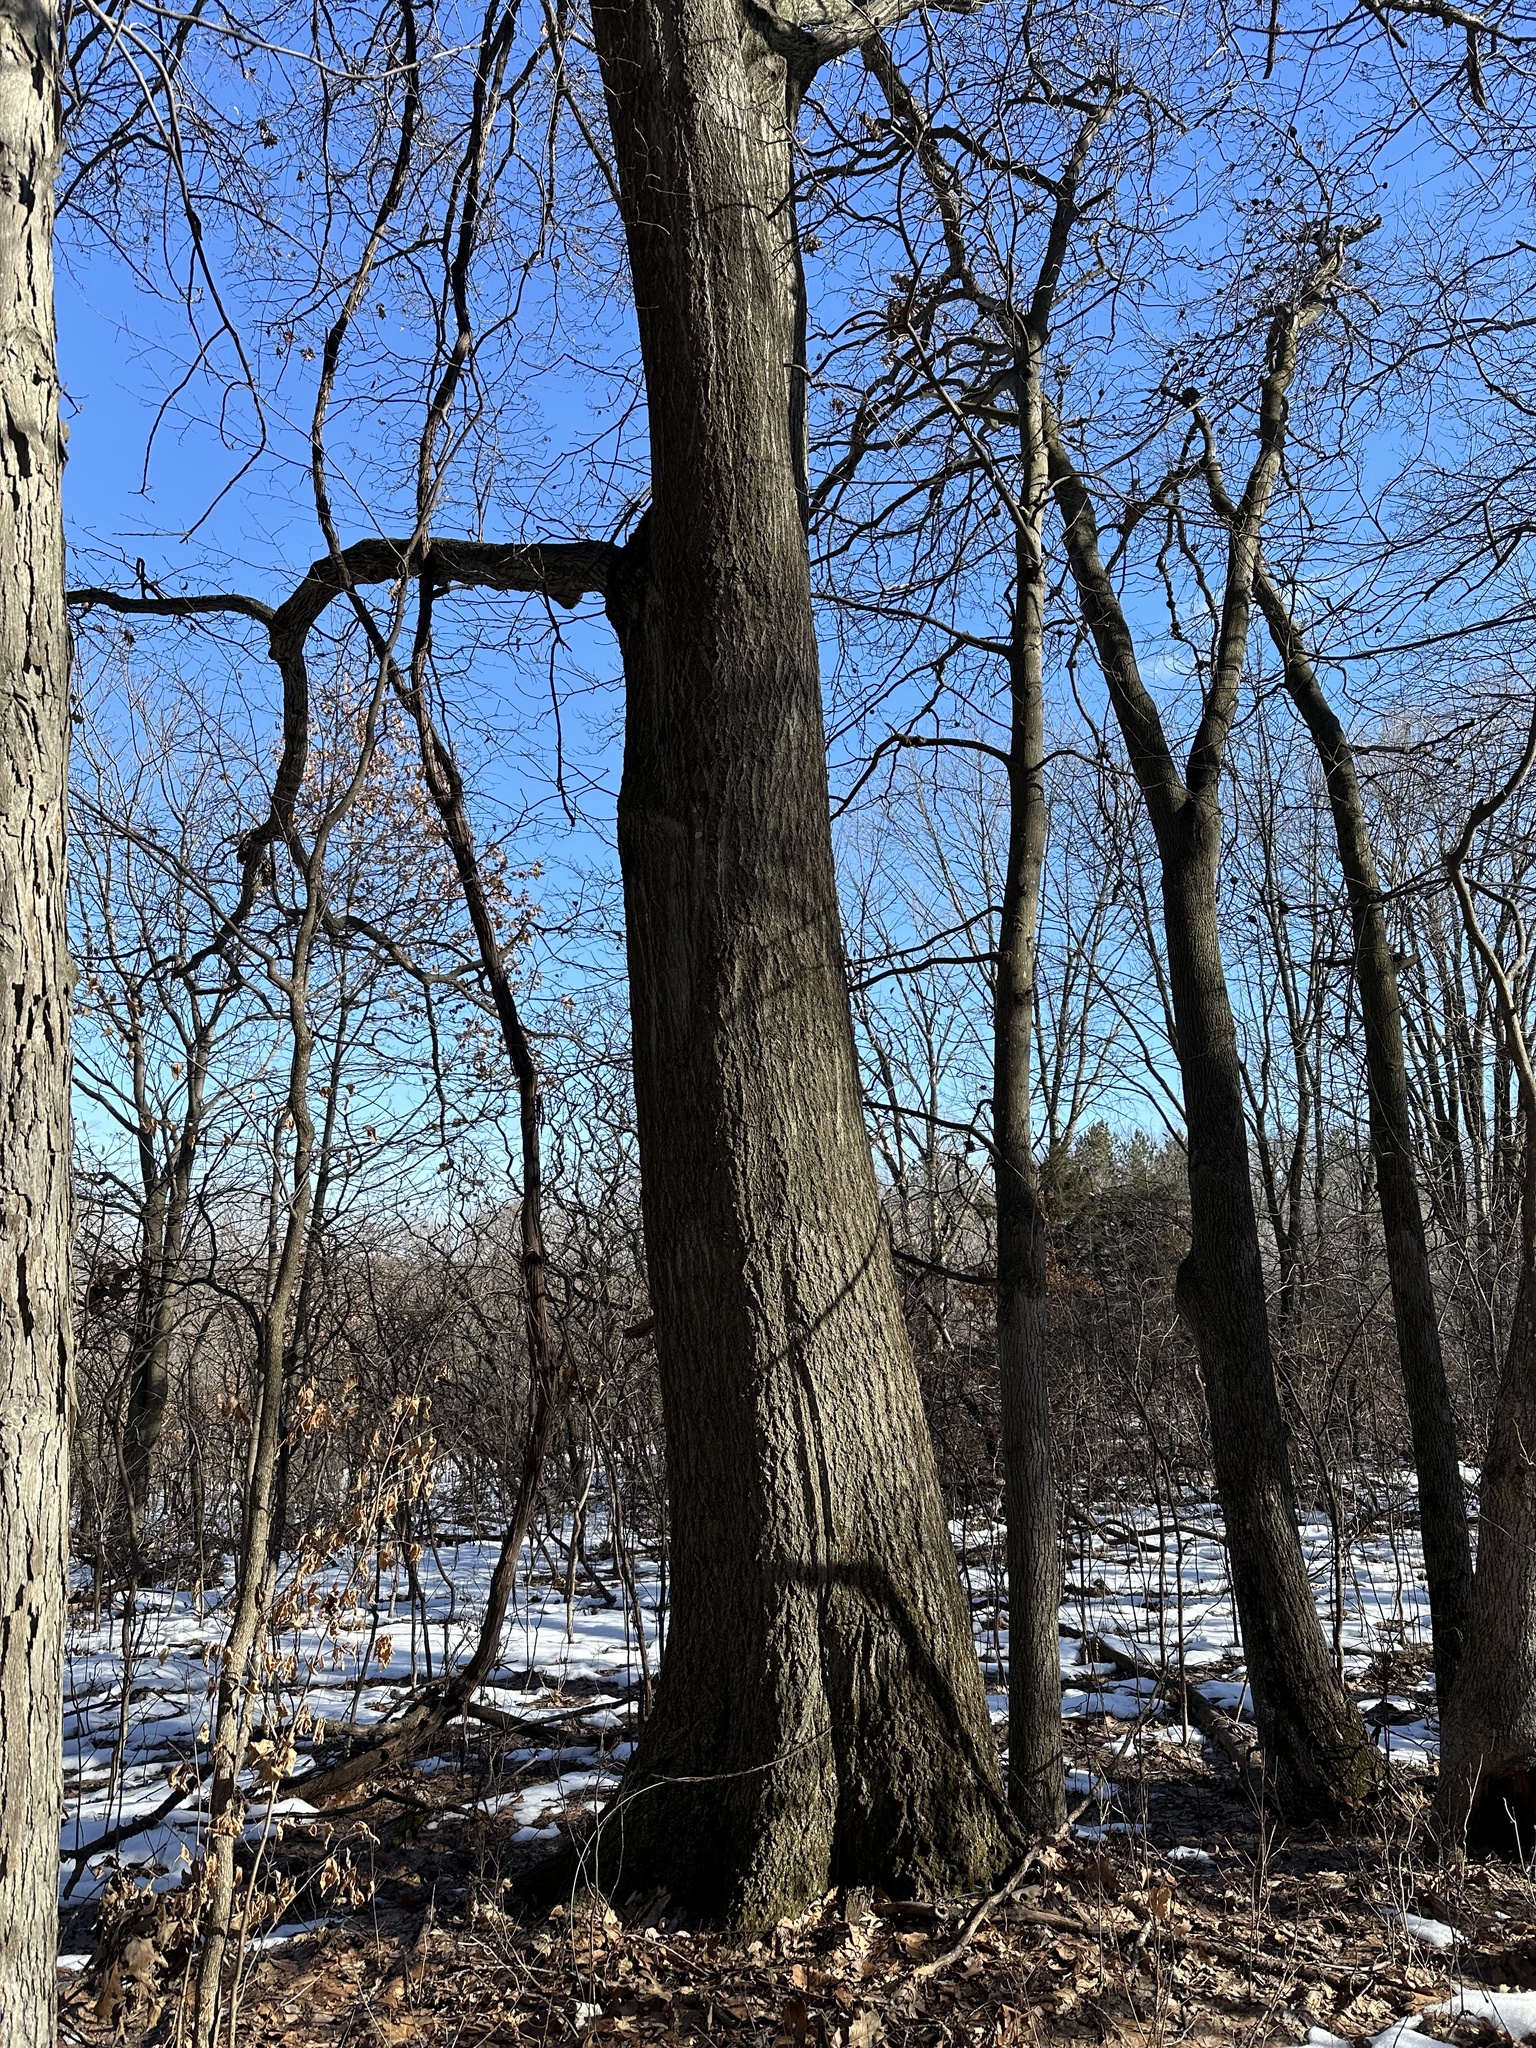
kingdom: Plantae
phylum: Tracheophyta
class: Magnoliopsida
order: Fagales
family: Fagaceae
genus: Quercus
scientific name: Quercus rubra
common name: Red oak
